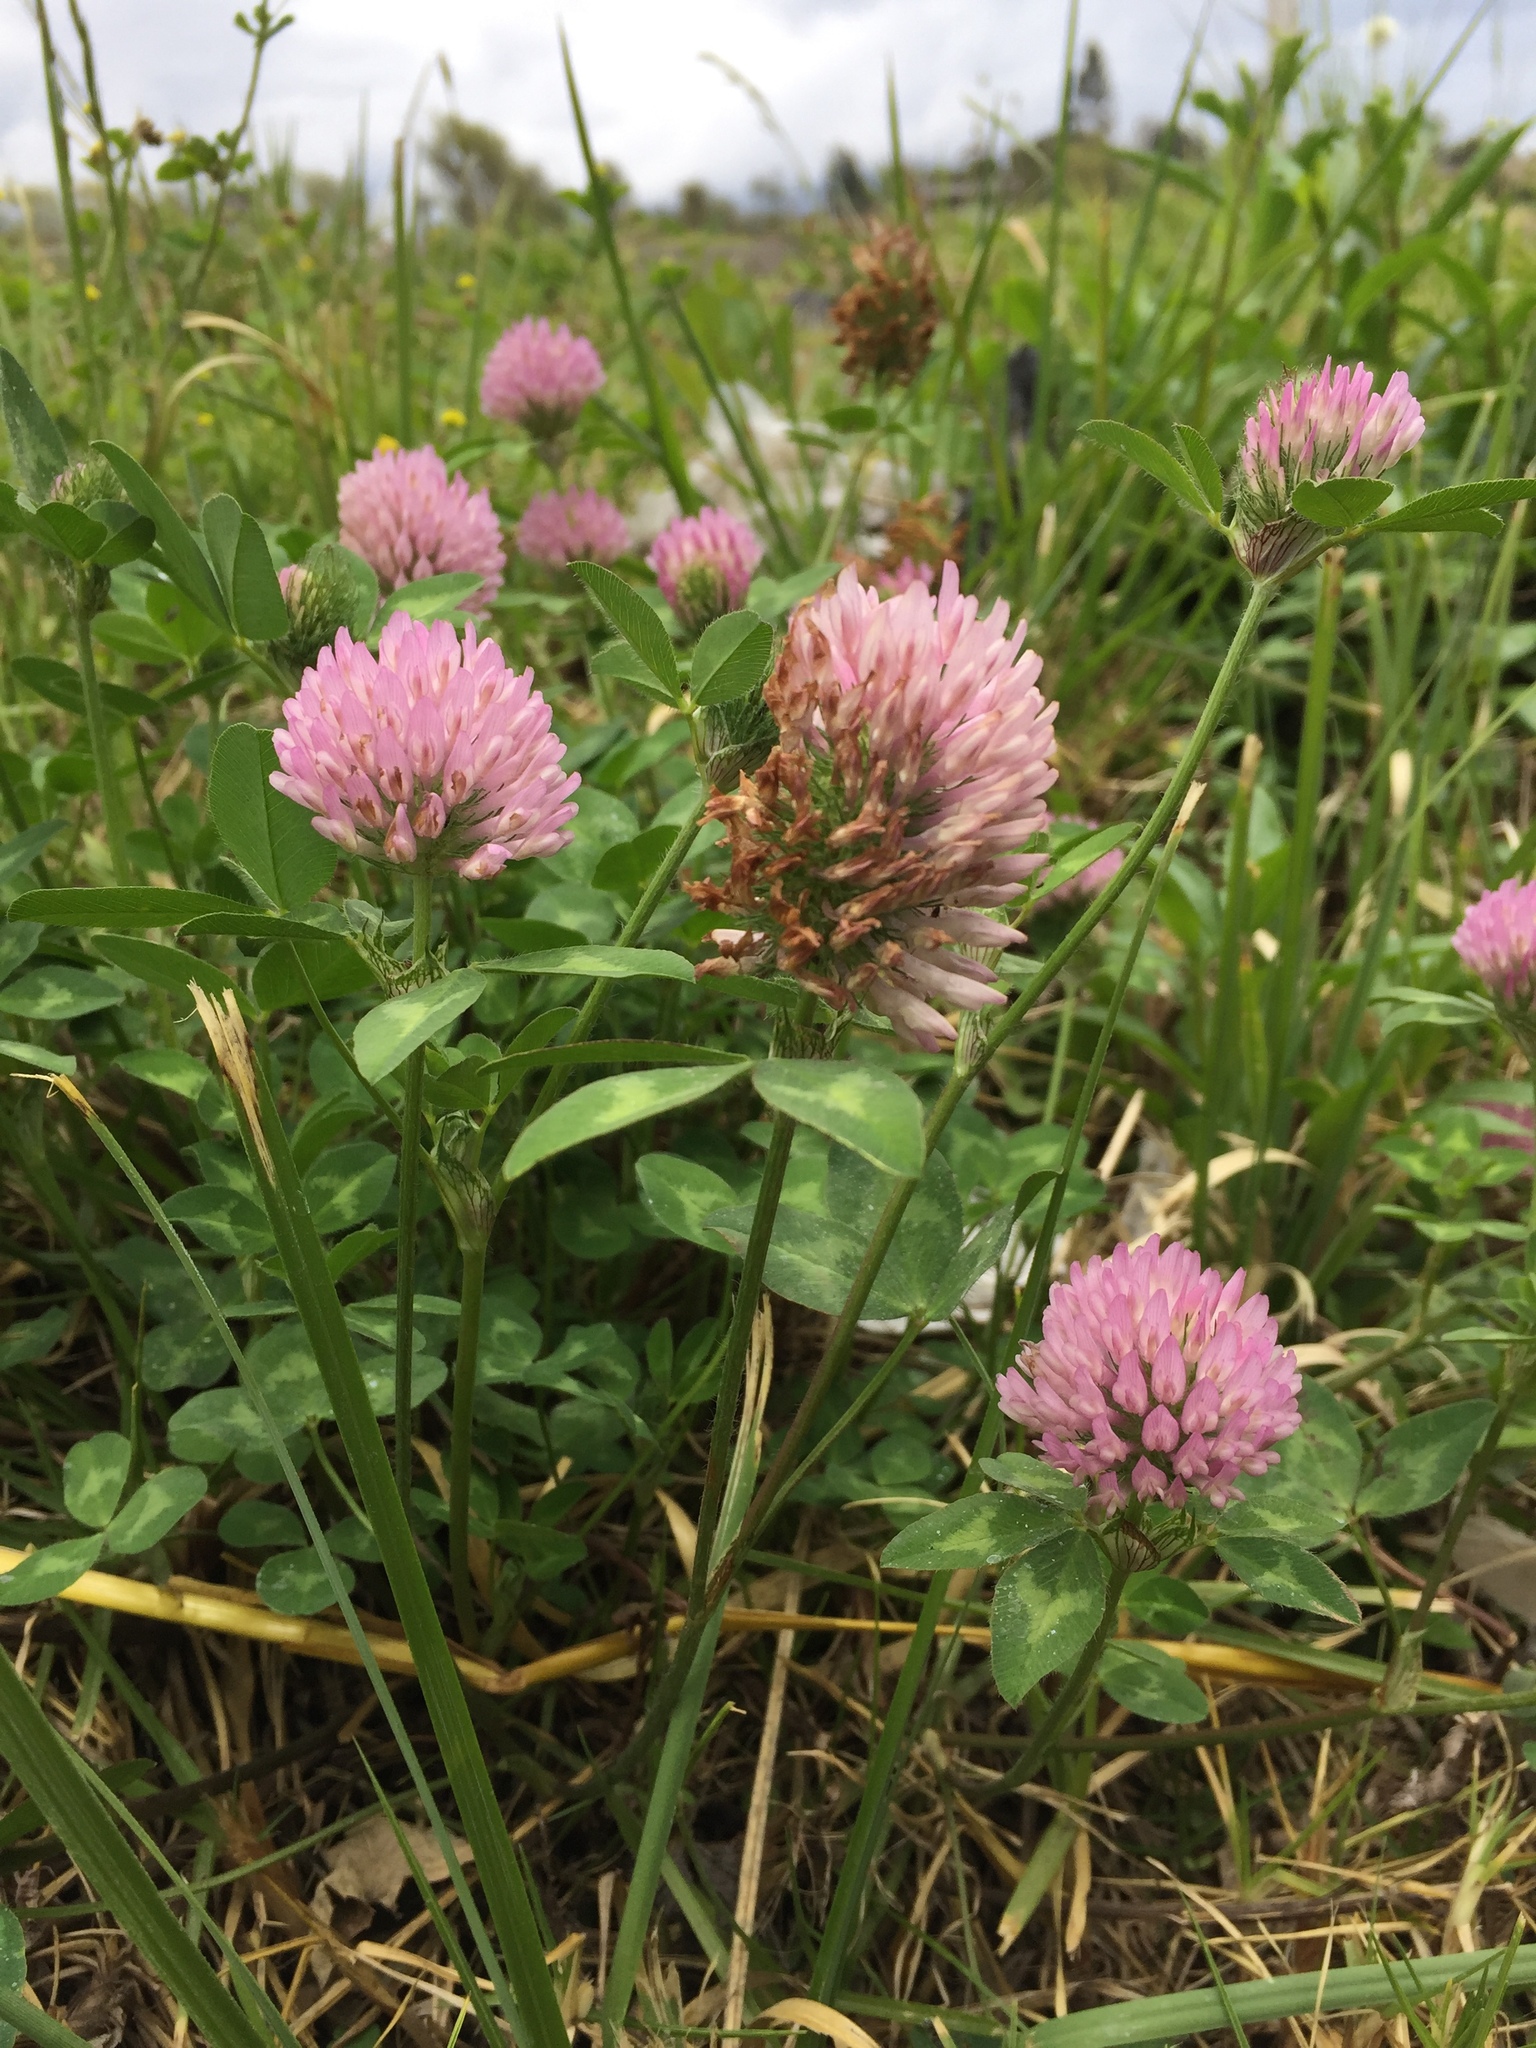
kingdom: Plantae
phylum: Tracheophyta
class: Magnoliopsida
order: Fabales
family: Fabaceae
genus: Trifolium
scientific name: Trifolium pratense
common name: Red clover
